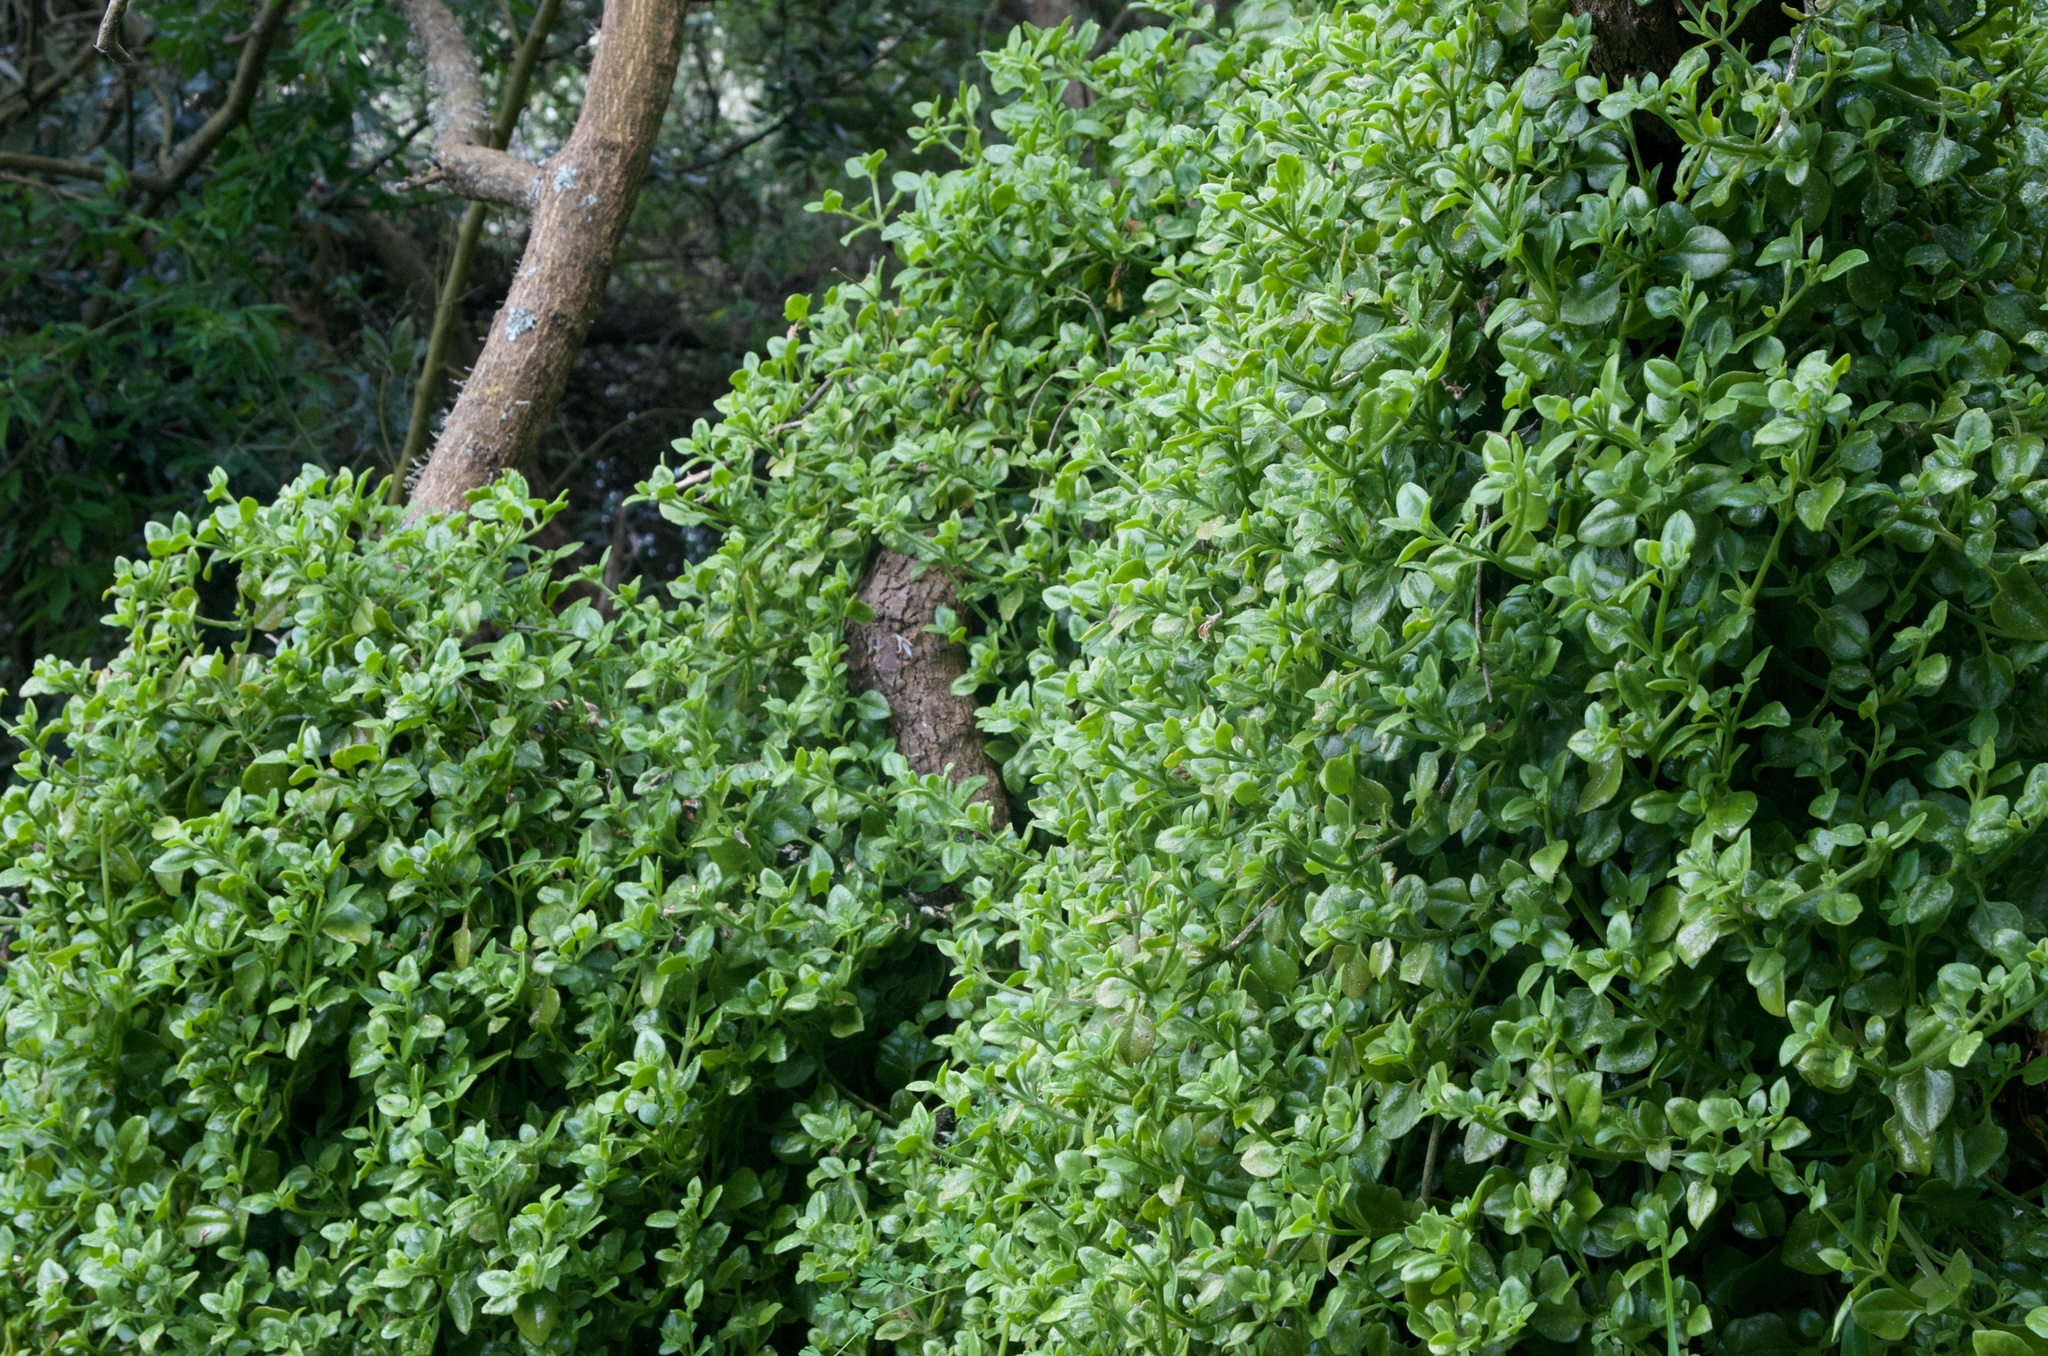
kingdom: Plantae
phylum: Tracheophyta
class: Magnoliopsida
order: Caryophyllales
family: Aizoaceae
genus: Mesembryanthemum
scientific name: Mesembryanthemum cordifolium
